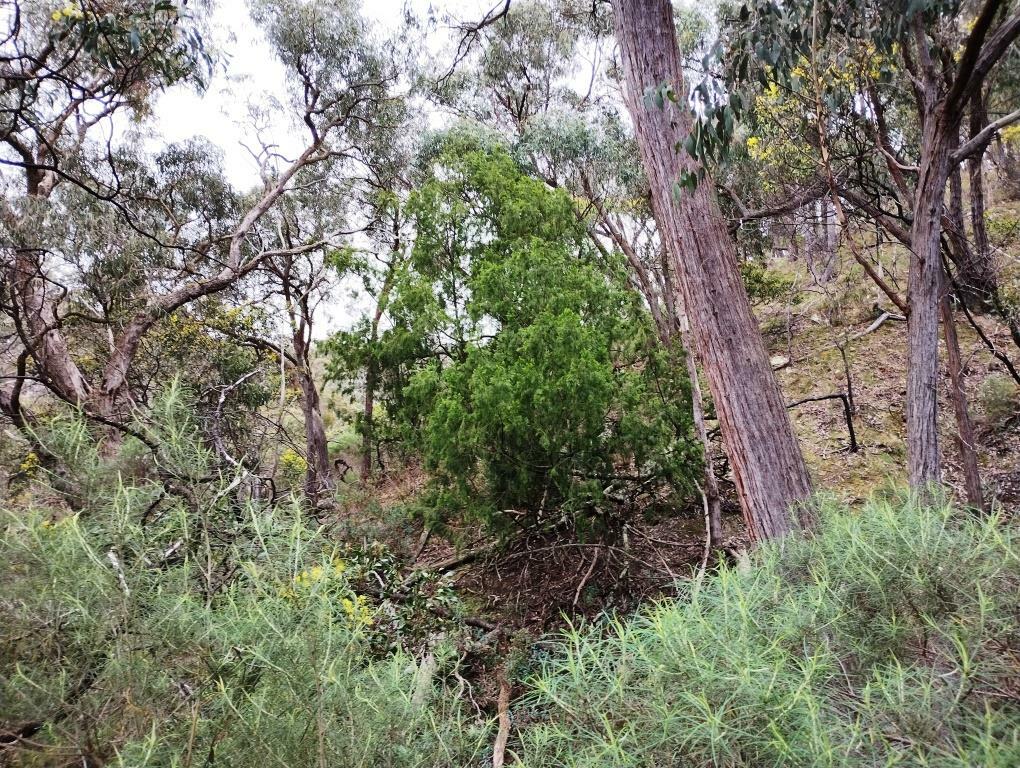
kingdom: Plantae
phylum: Tracheophyta
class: Magnoliopsida
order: Santalales
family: Santalaceae
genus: Exocarpos
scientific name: Exocarpos cupressiformis
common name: Cherry ballart
